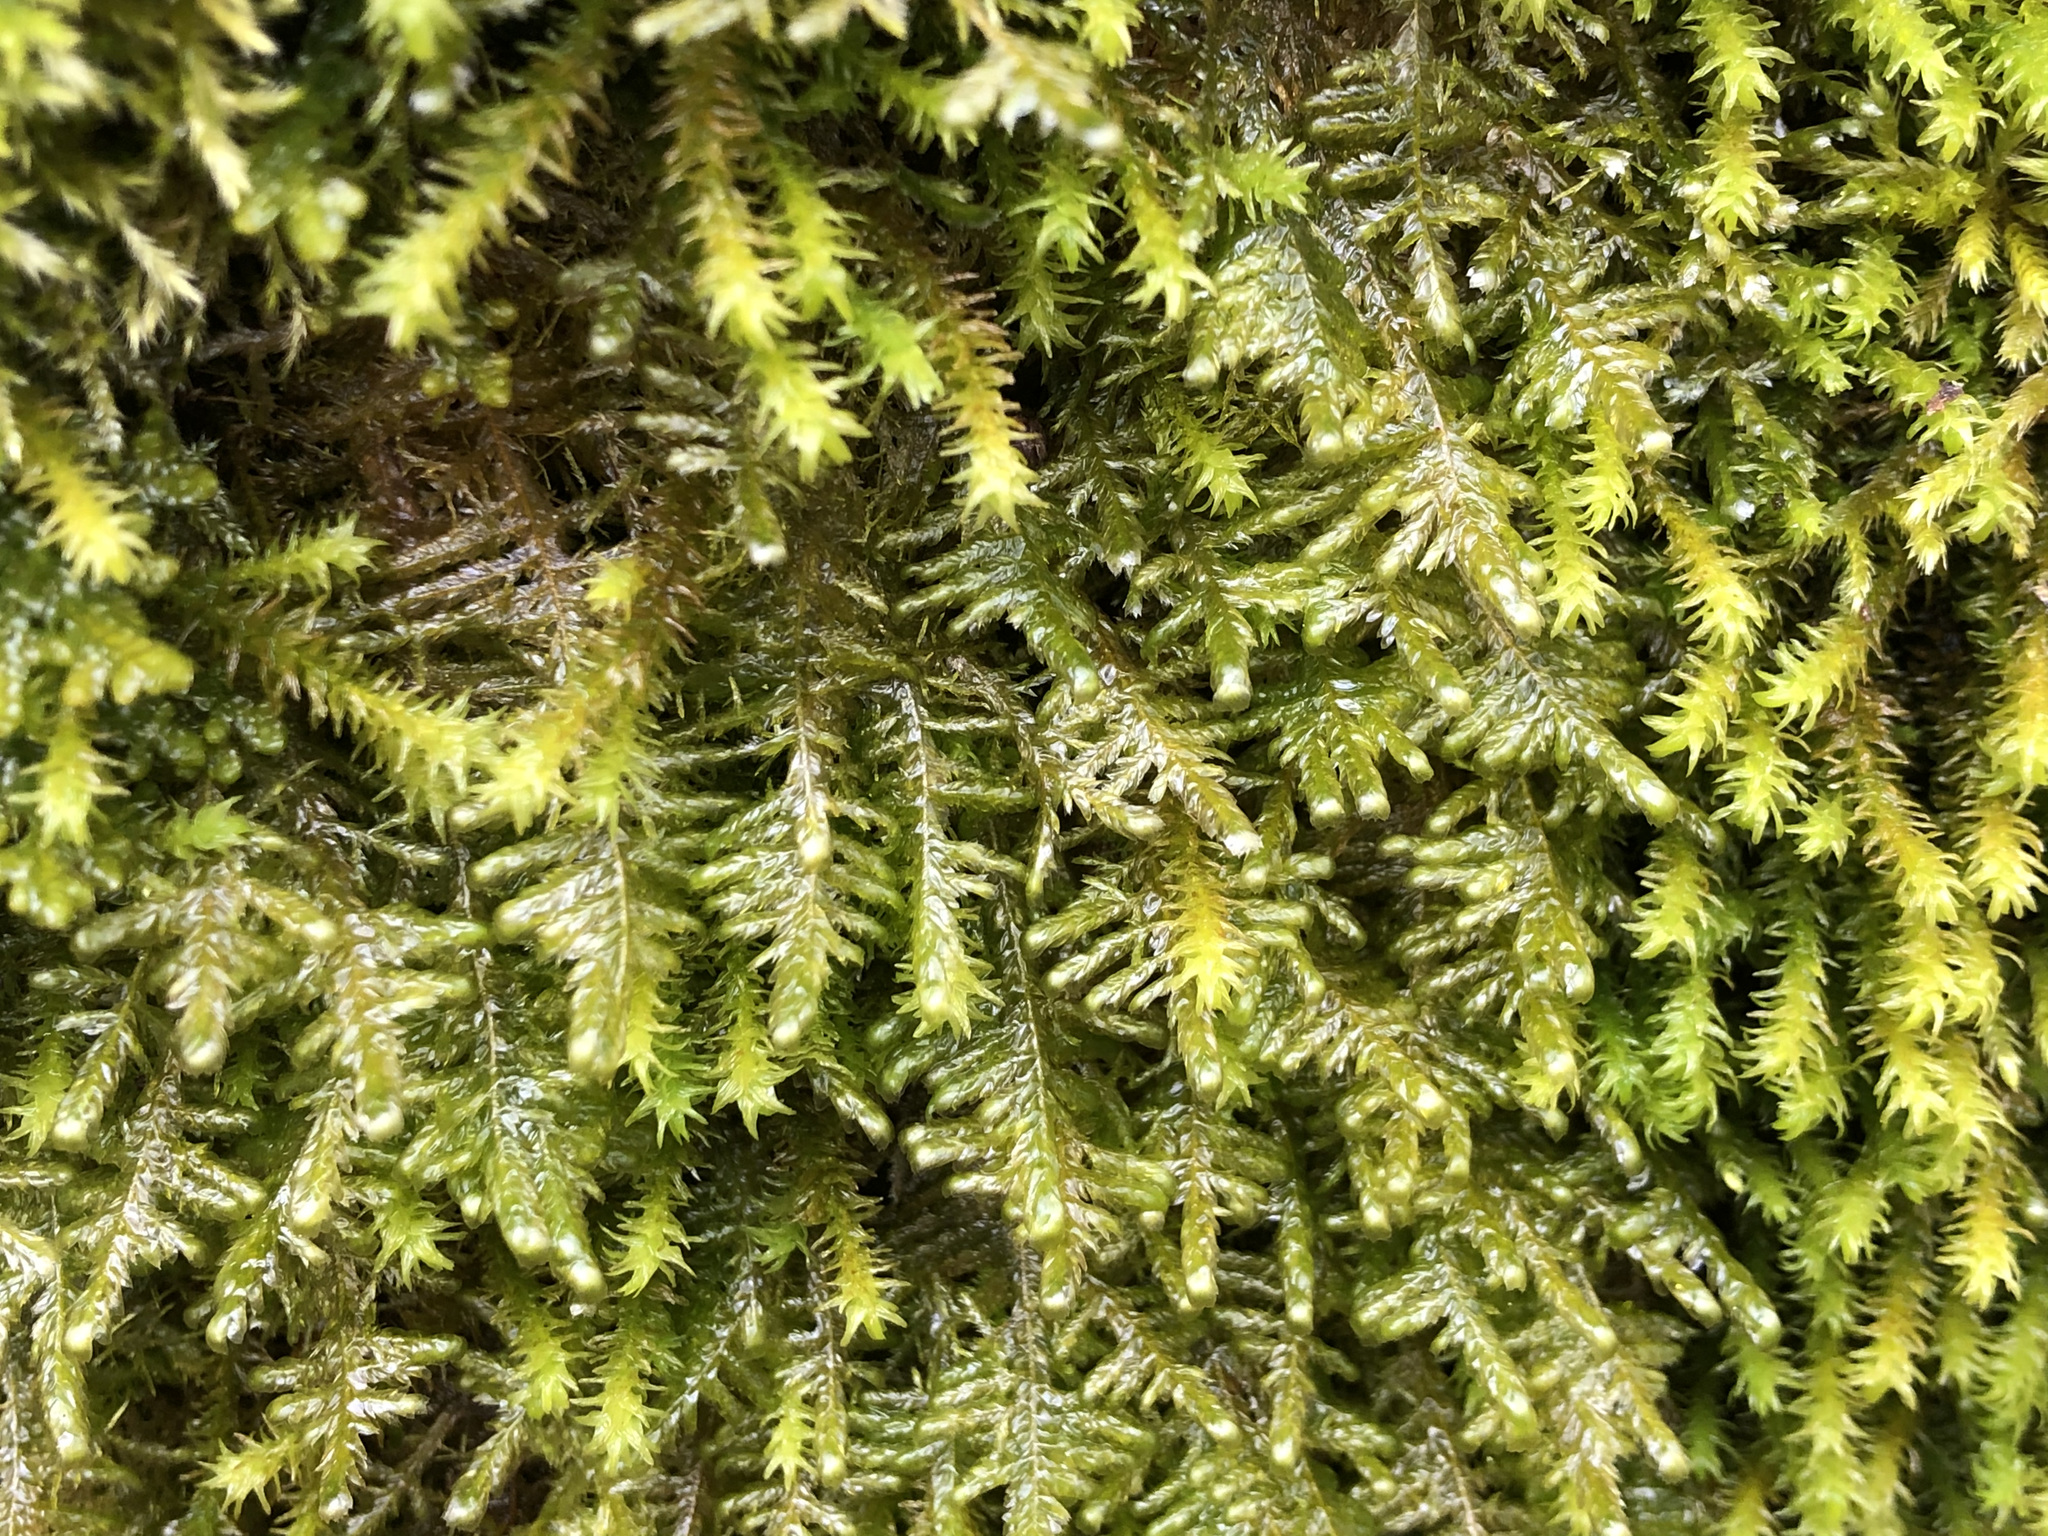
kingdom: Plantae
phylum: Bryophyta
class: Bryopsida
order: Hypnales
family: Neckeraceae
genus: Alleniella
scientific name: Alleniella complanata
